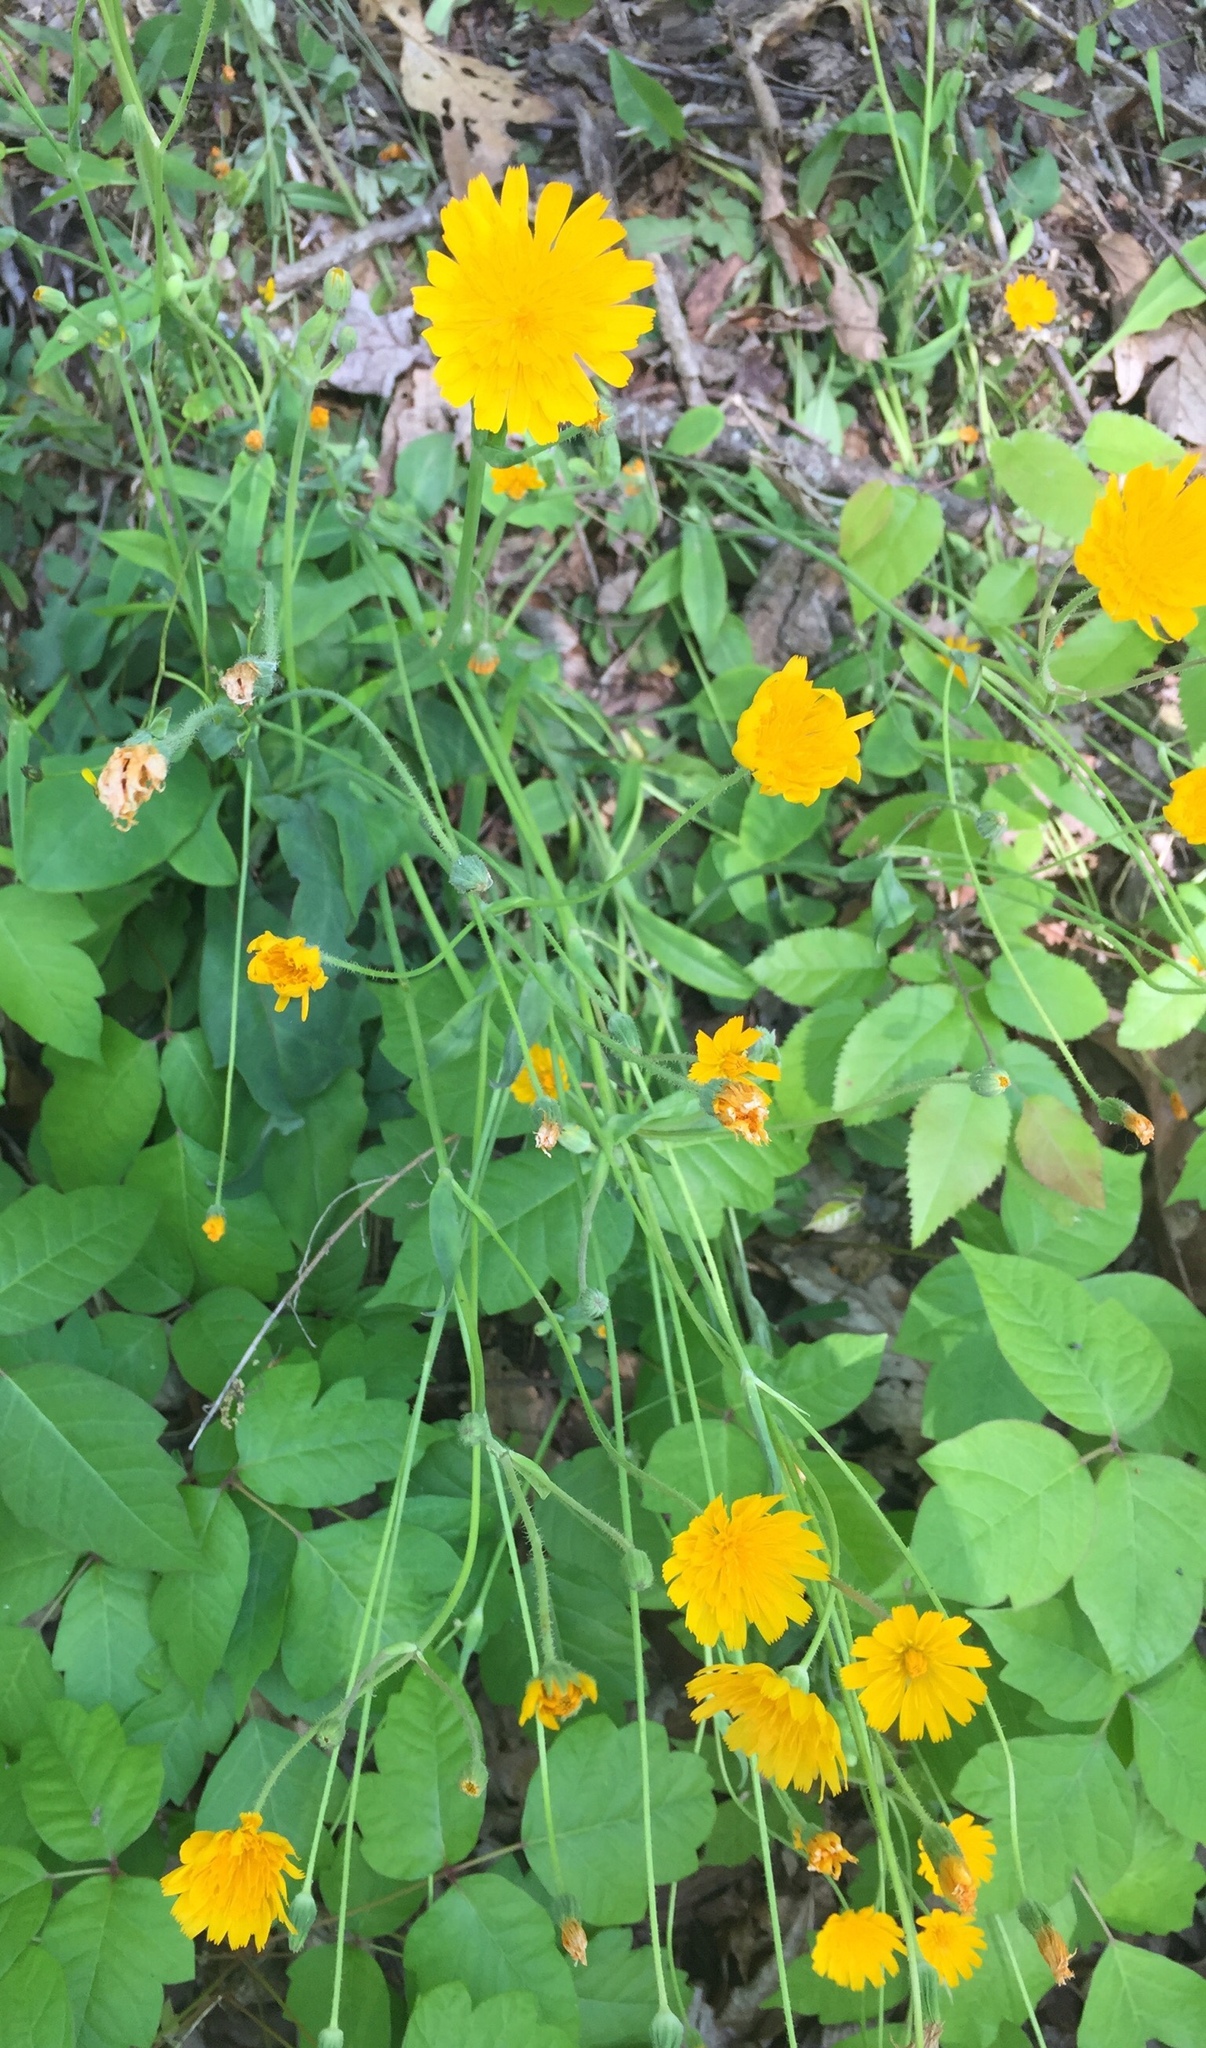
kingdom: Plantae
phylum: Tracheophyta
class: Magnoliopsida
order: Asterales
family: Asteraceae
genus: Krigia
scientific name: Krigia biflora
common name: Orange dwarf-dandelion
